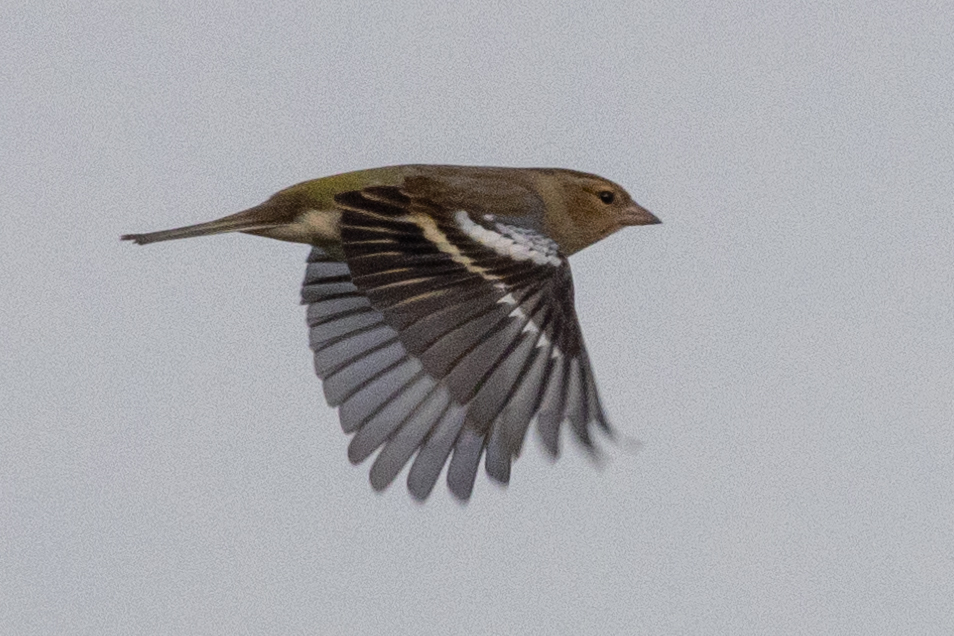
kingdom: Animalia
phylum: Chordata
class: Aves
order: Passeriformes
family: Fringillidae
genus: Fringilla
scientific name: Fringilla coelebs
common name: Common chaffinch
